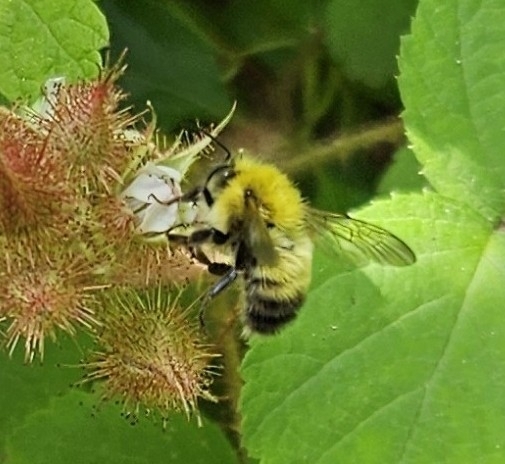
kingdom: Animalia
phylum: Arthropoda
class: Insecta
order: Hymenoptera
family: Apidae
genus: Bombus
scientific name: Bombus perplexus
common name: Confusing bumble bee
